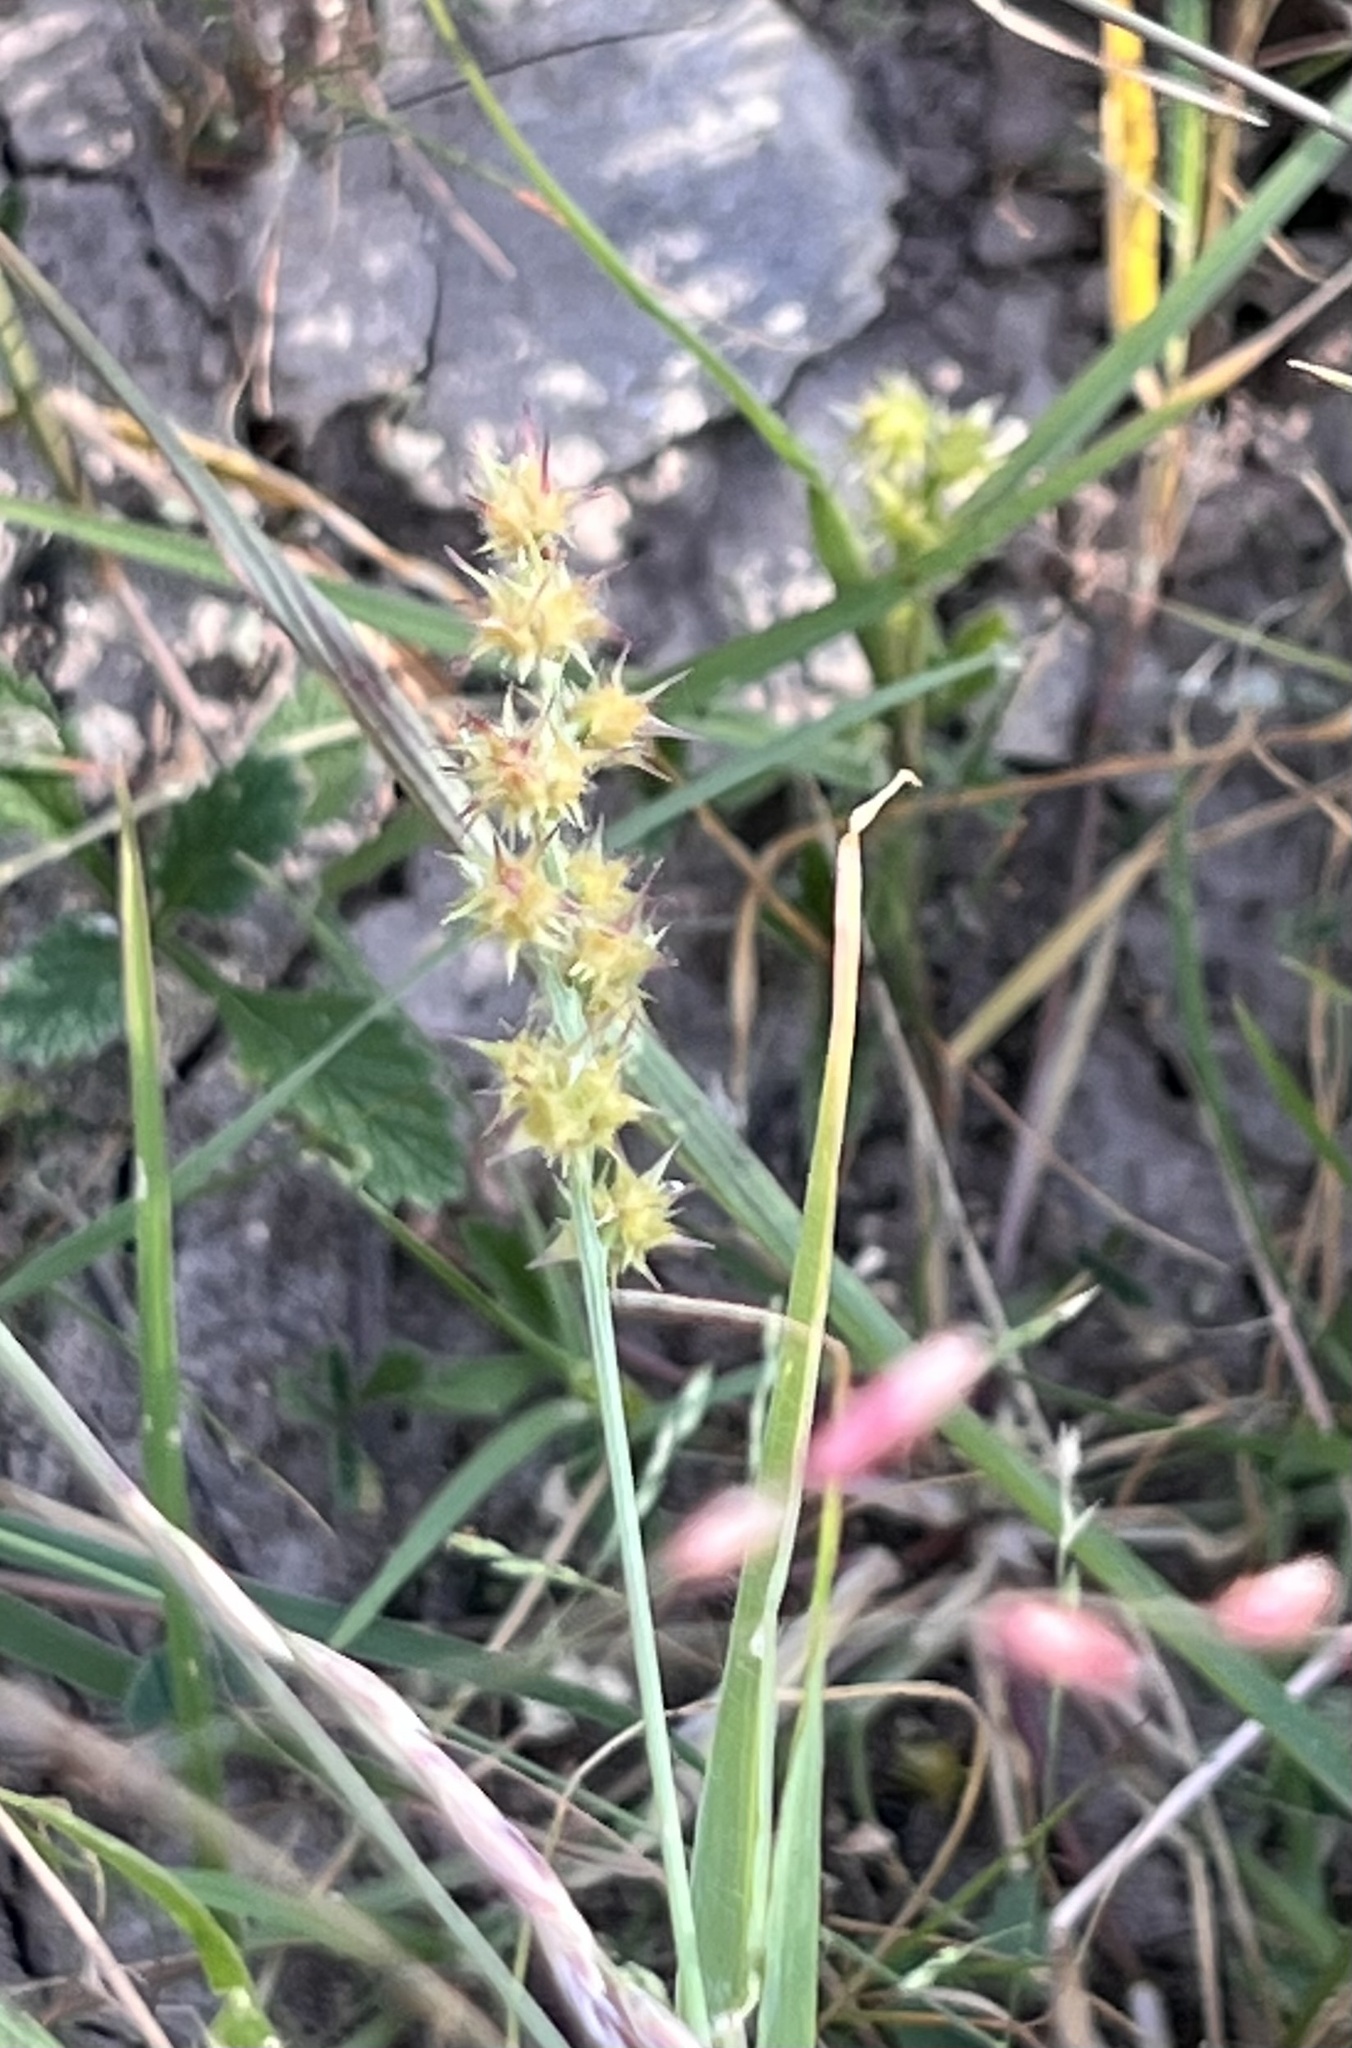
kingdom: Plantae
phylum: Tracheophyta
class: Liliopsida
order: Poales
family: Poaceae
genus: Cenchrus
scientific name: Cenchrus spinifex
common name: Coast sandbur
